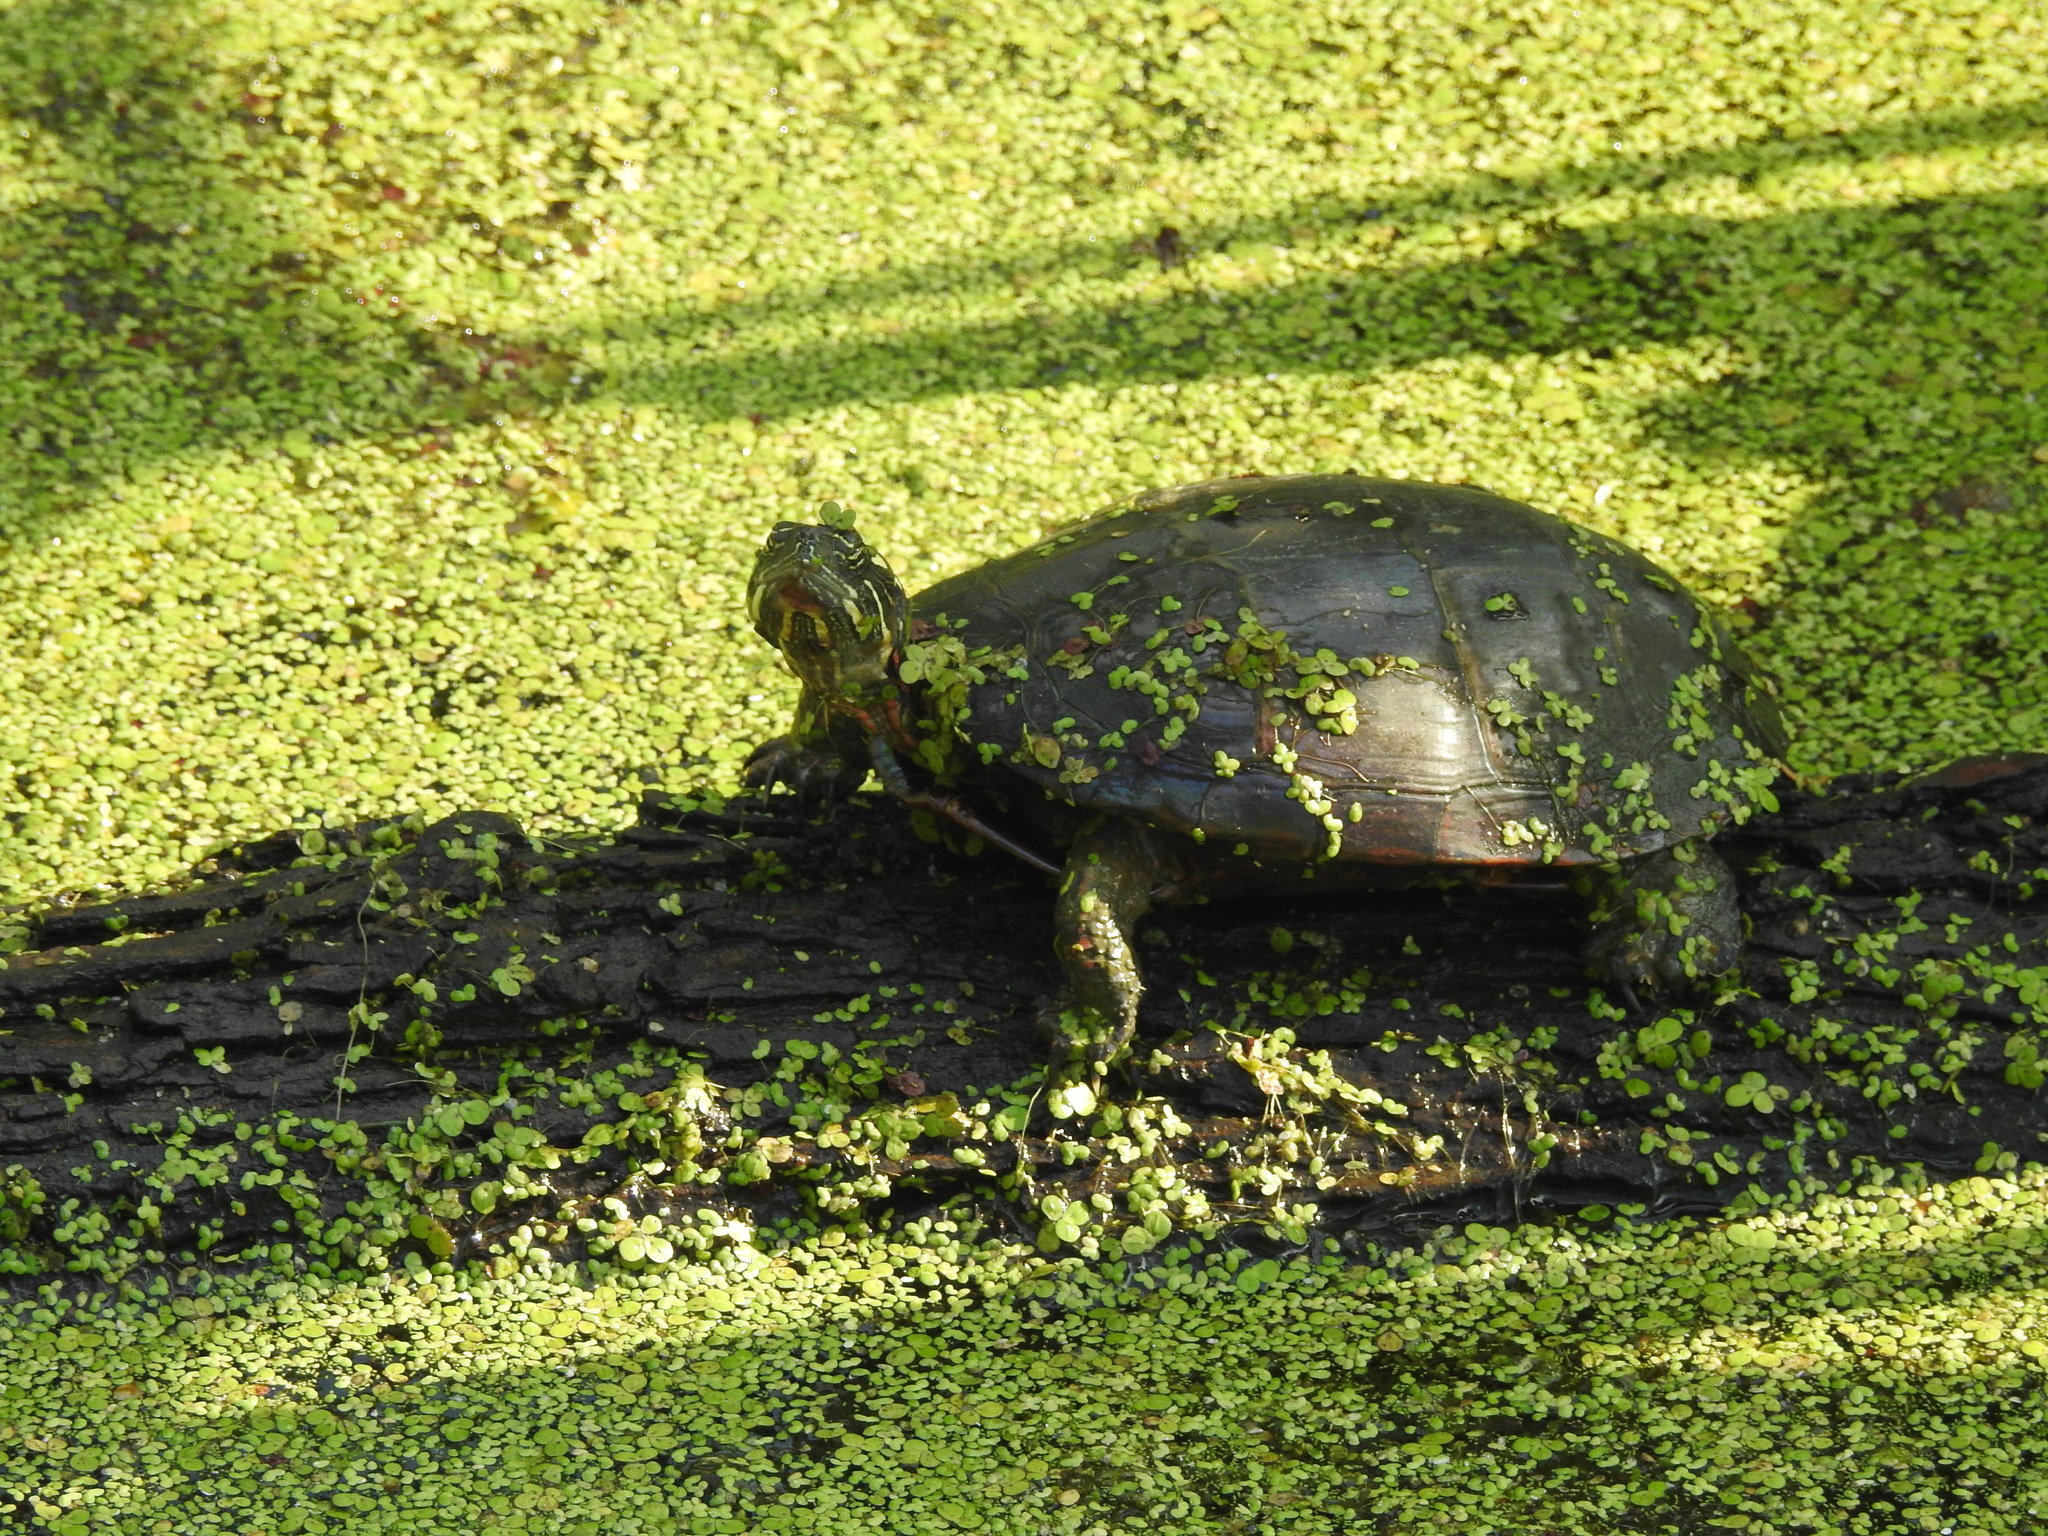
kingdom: Animalia
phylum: Chordata
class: Testudines
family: Emydidae
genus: Chrysemys
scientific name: Chrysemys picta
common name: Painted turtle
